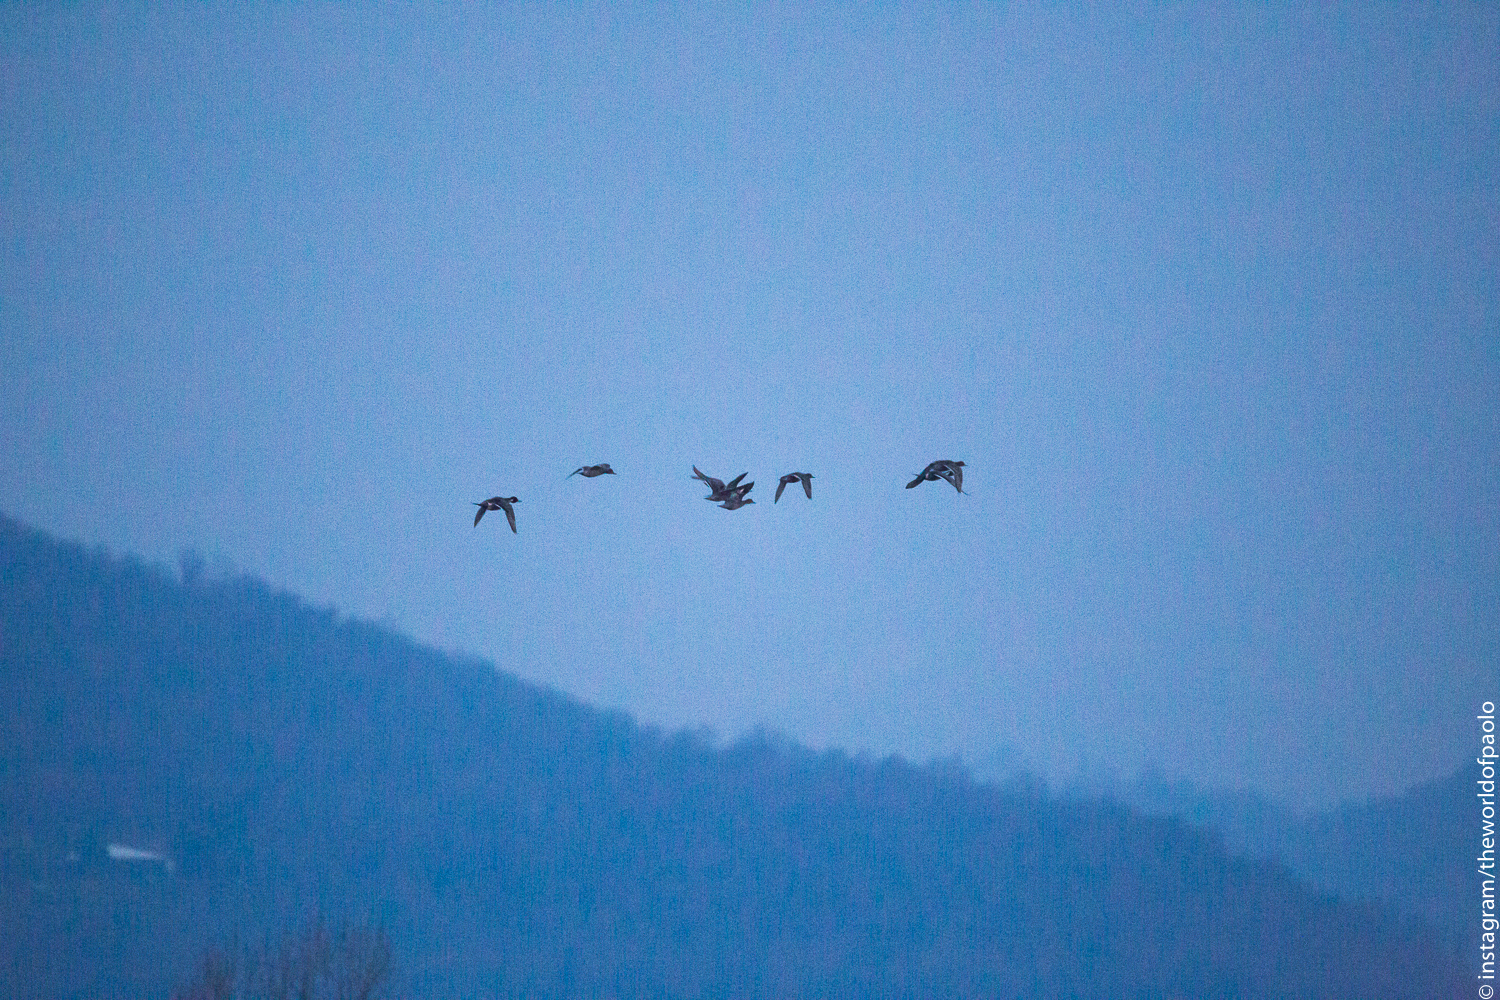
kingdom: Animalia
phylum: Chordata
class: Aves
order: Anseriformes
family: Anatidae
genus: Anas
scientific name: Anas acuta
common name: Northern pintail
